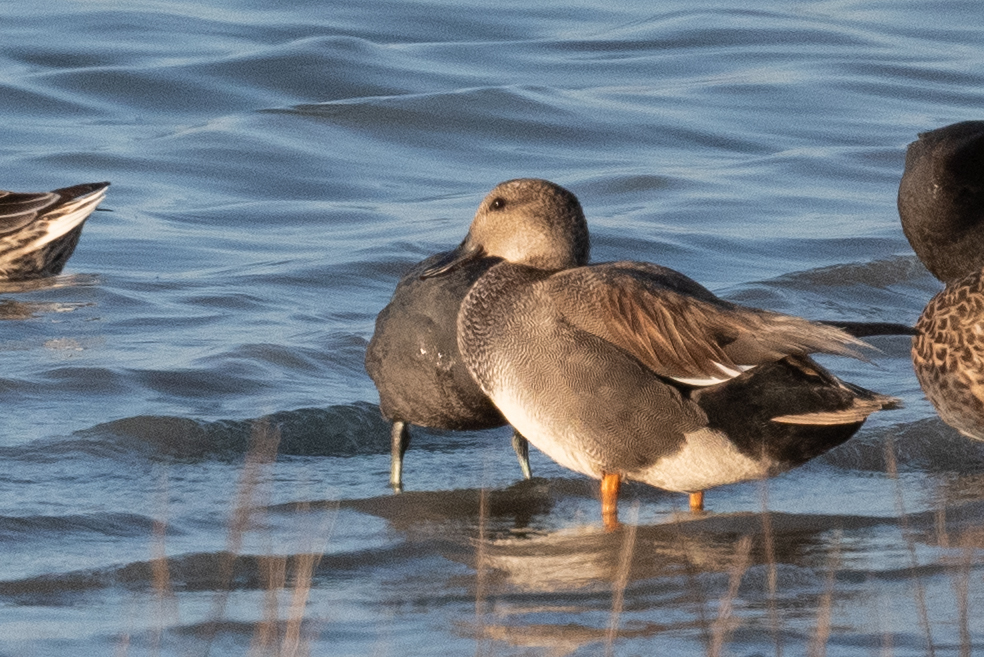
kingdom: Animalia
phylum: Chordata
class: Aves
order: Anseriformes
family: Anatidae
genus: Mareca
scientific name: Mareca strepera
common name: Gadwall
